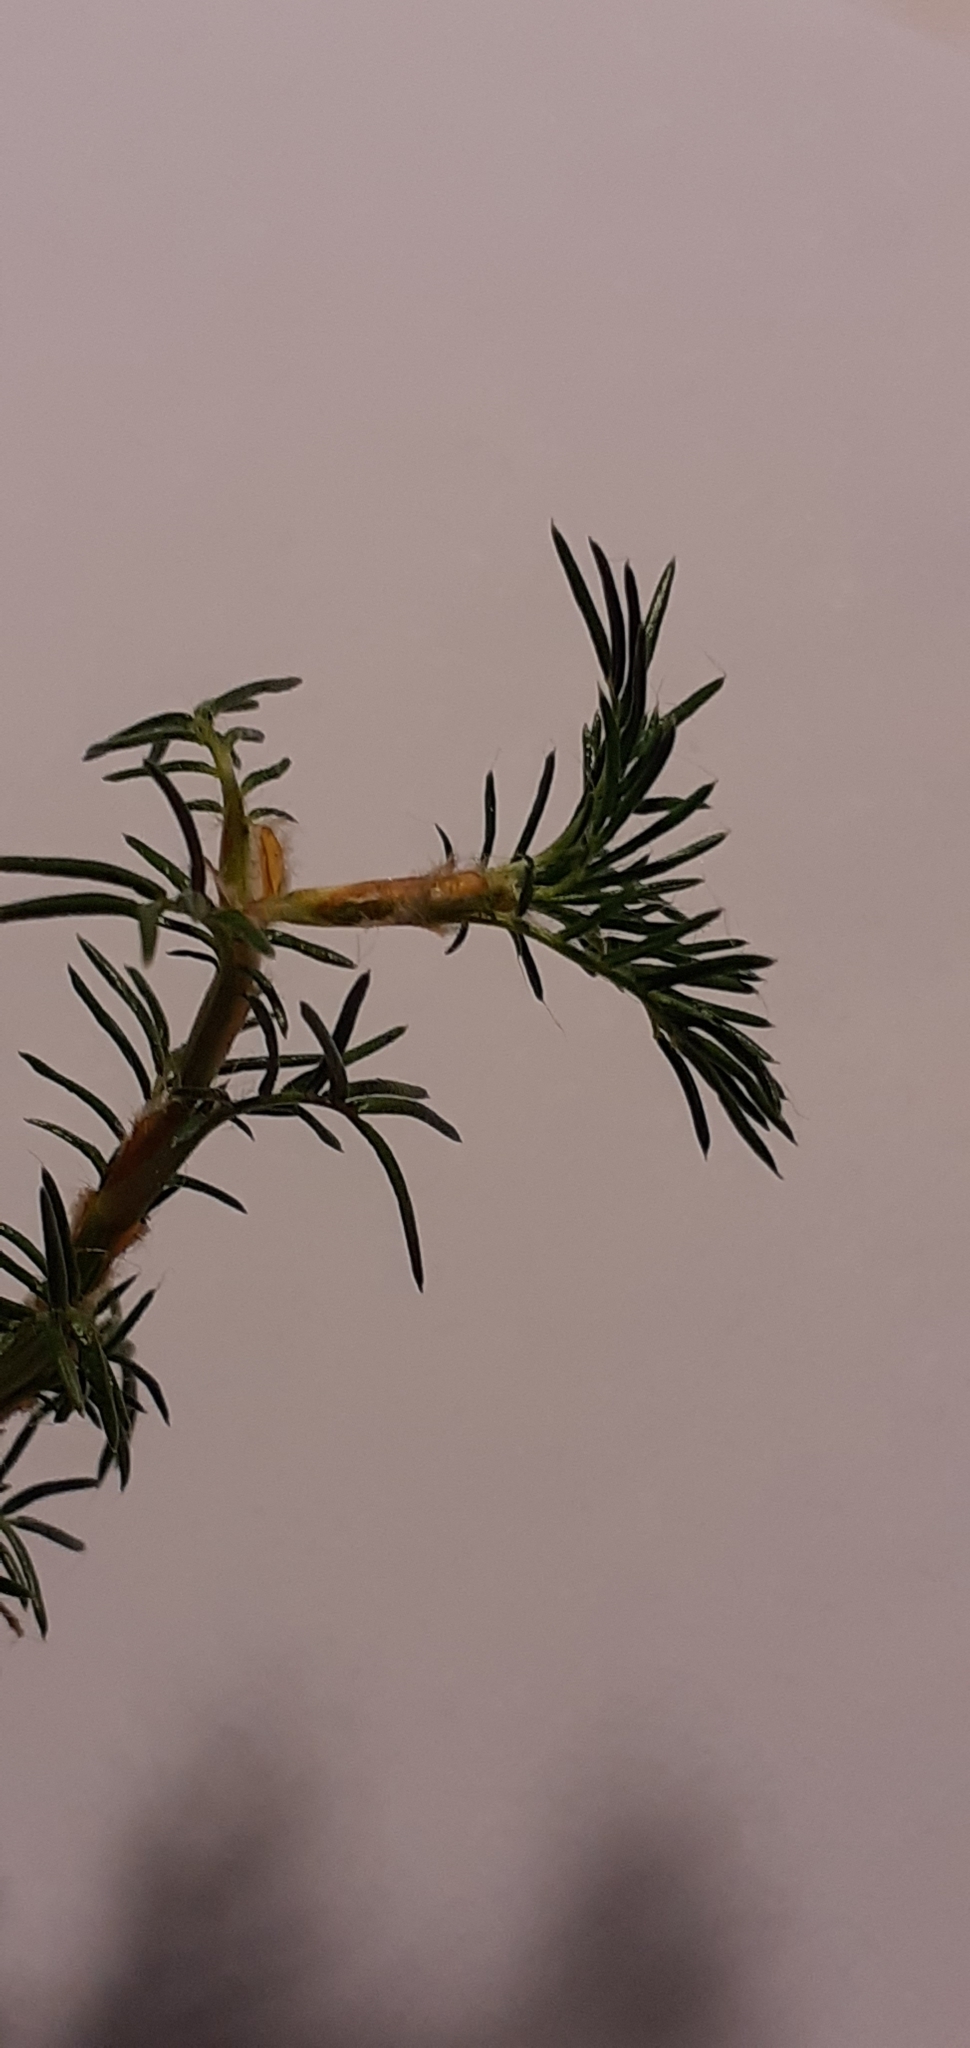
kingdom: Plantae
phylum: Tracheophyta
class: Magnoliopsida
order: Rosales
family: Rosaceae
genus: Margyricarpus
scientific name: Margyricarpus pinnatus
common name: Pearlfruit
